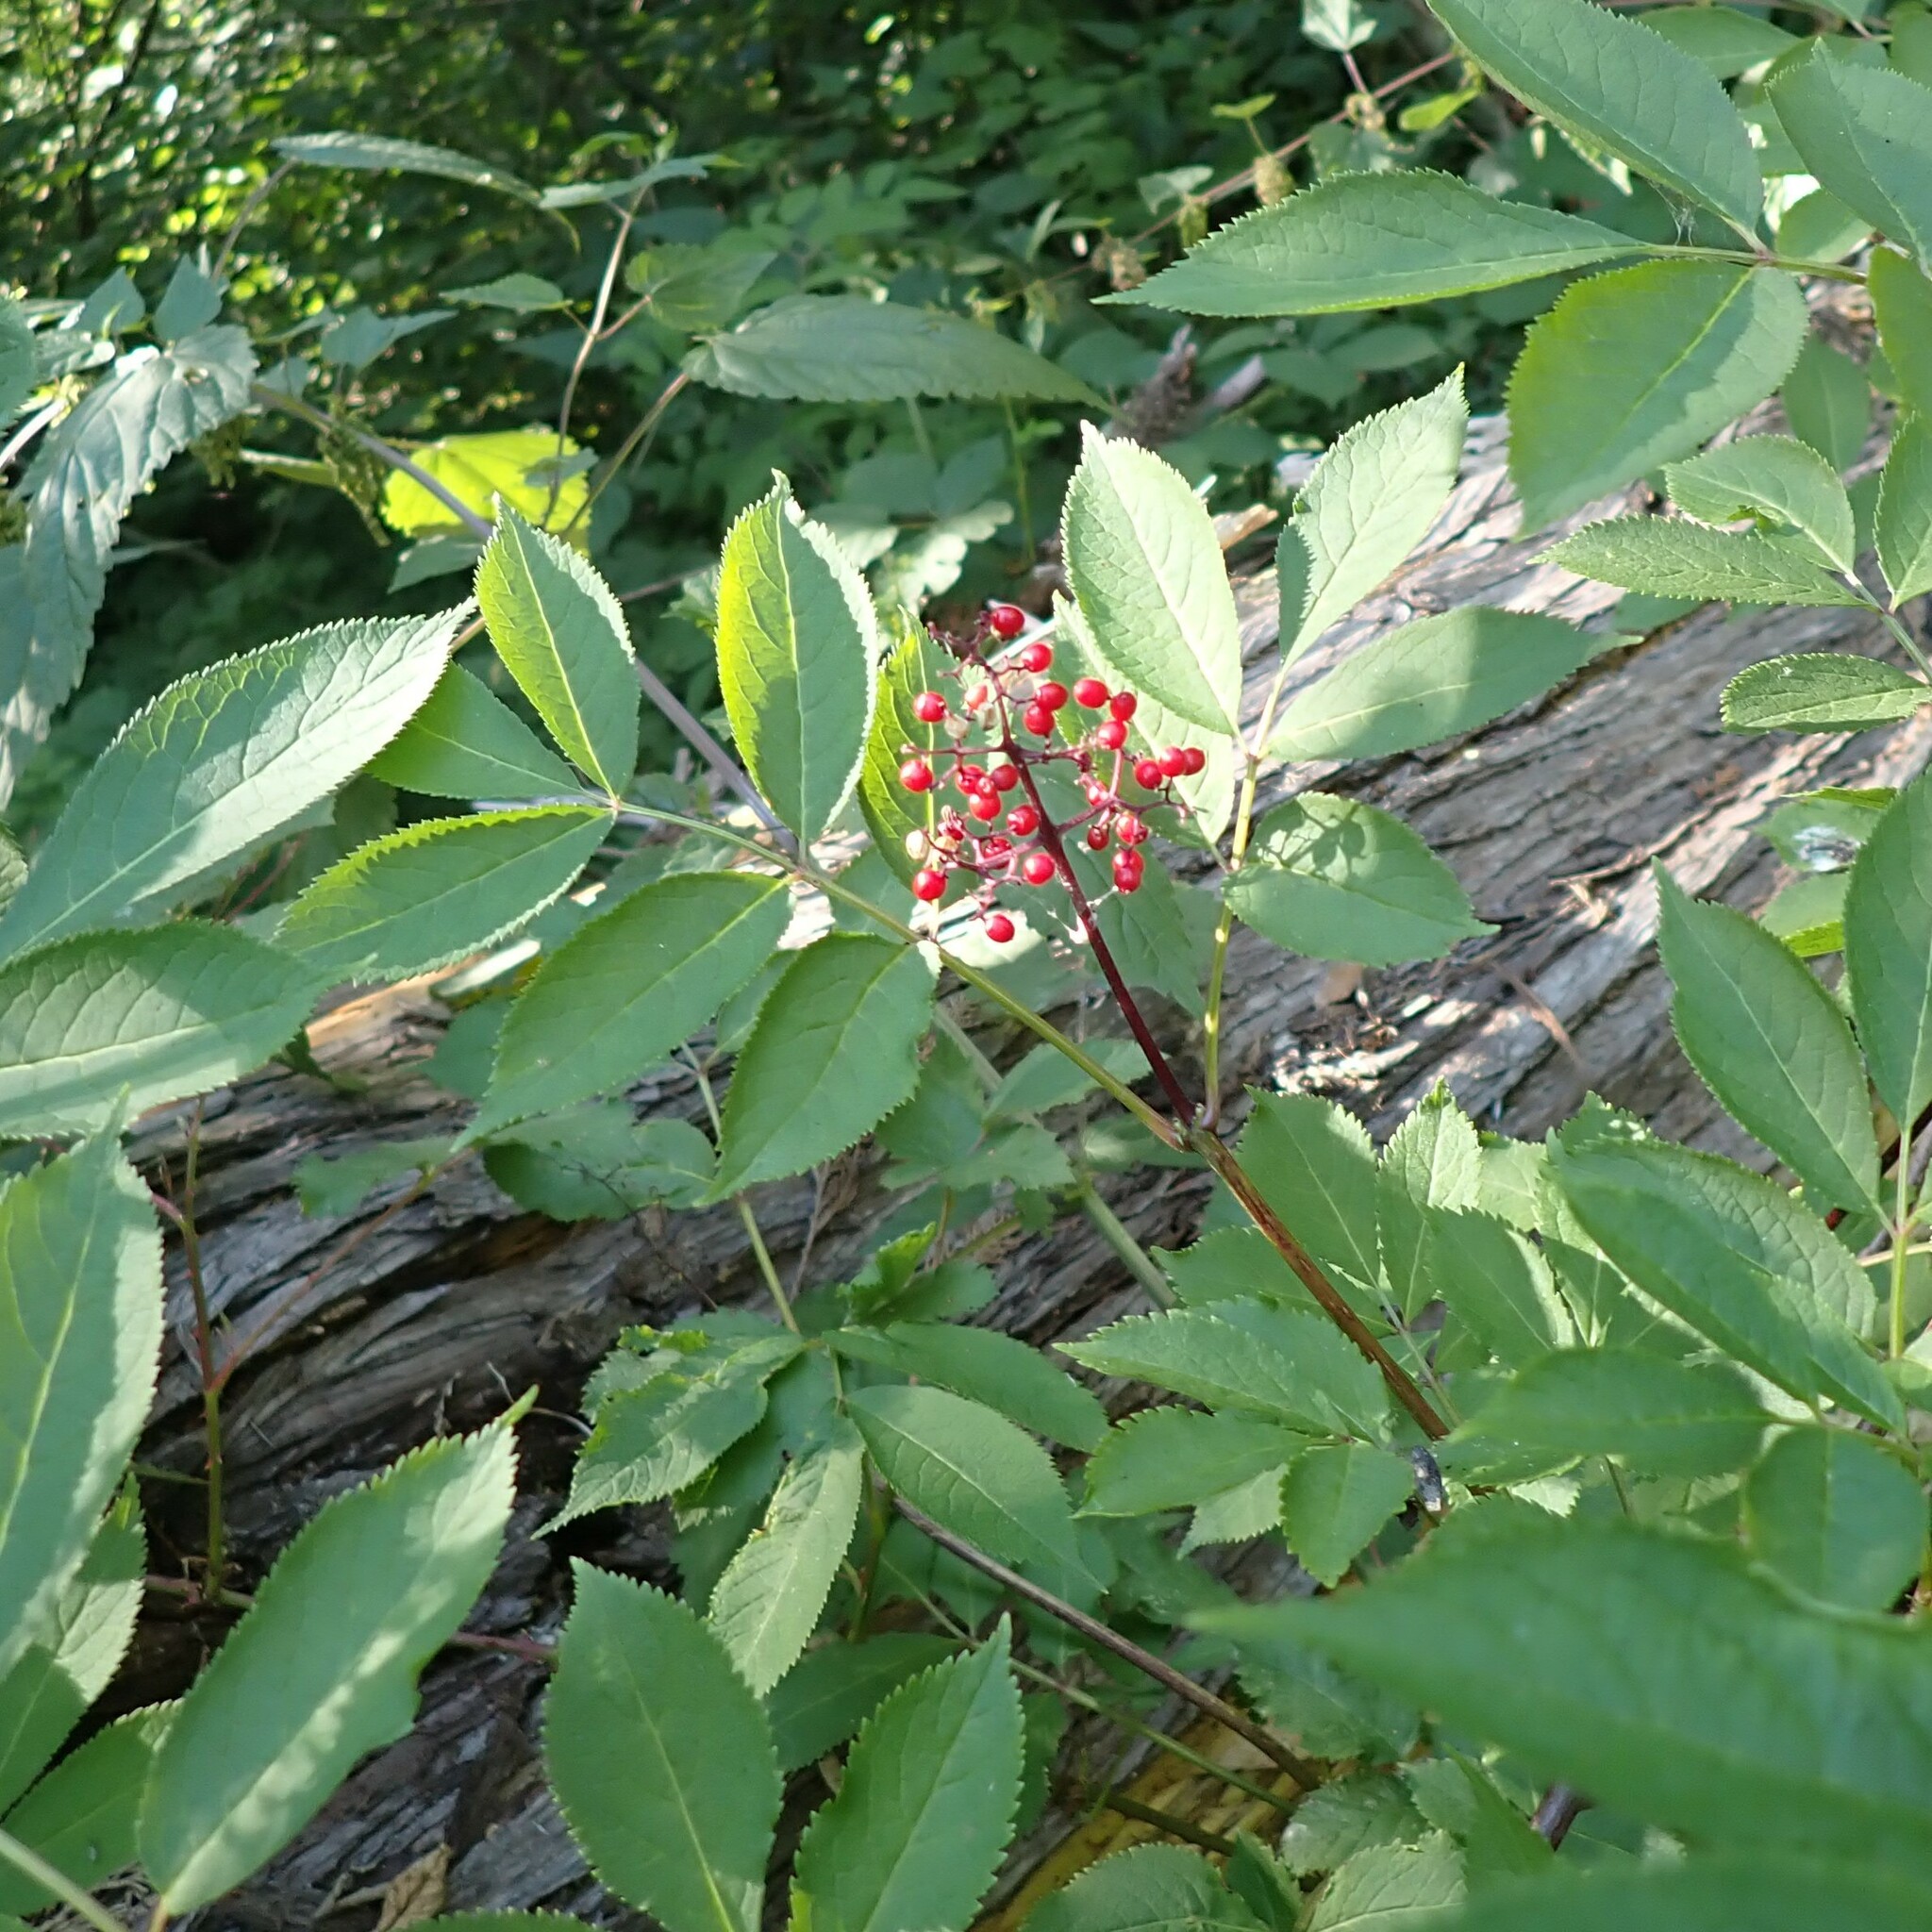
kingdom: Plantae
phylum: Tracheophyta
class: Magnoliopsida
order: Dipsacales
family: Viburnaceae
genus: Sambucus
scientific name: Sambucus racemosa
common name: Red-berried elder
